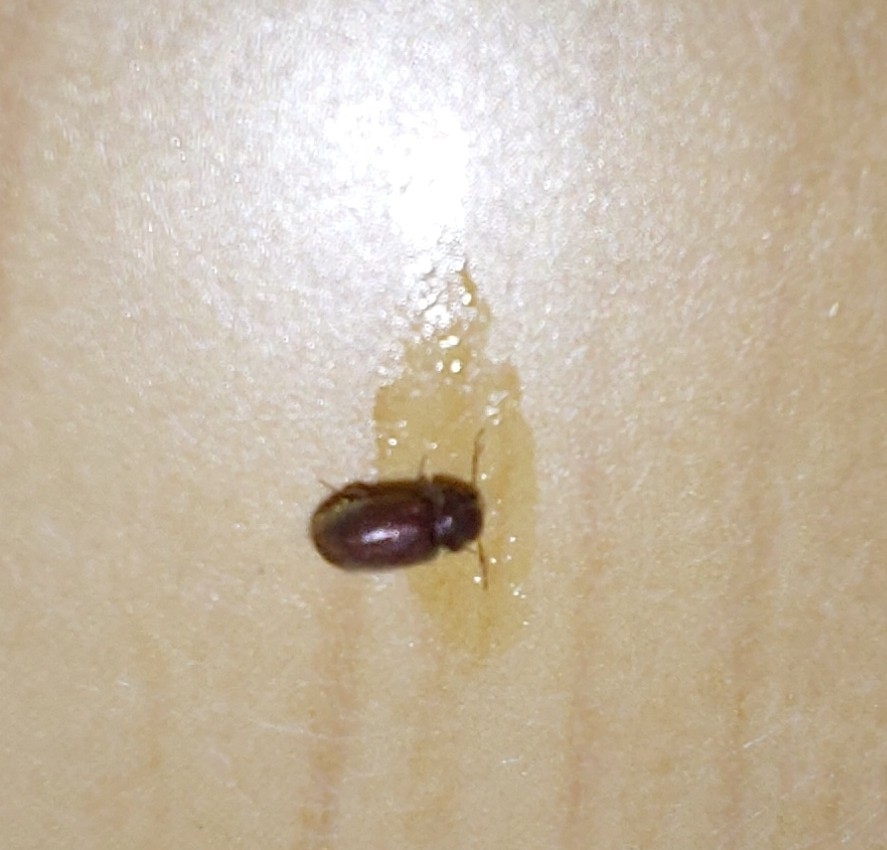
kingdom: Animalia
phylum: Arthropoda
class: Insecta
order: Coleoptera
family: Anobiidae
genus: Stegobium
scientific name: Stegobium paniceum
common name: Drugstore beetle
